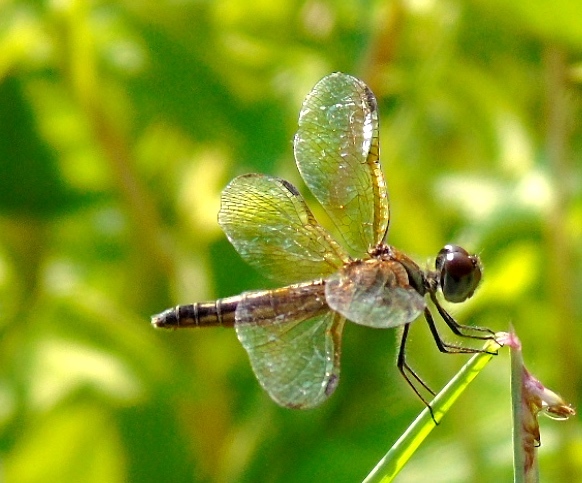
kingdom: Animalia
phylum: Arthropoda
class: Insecta
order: Odonata
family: Libellulidae
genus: Perithemis
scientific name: Perithemis
